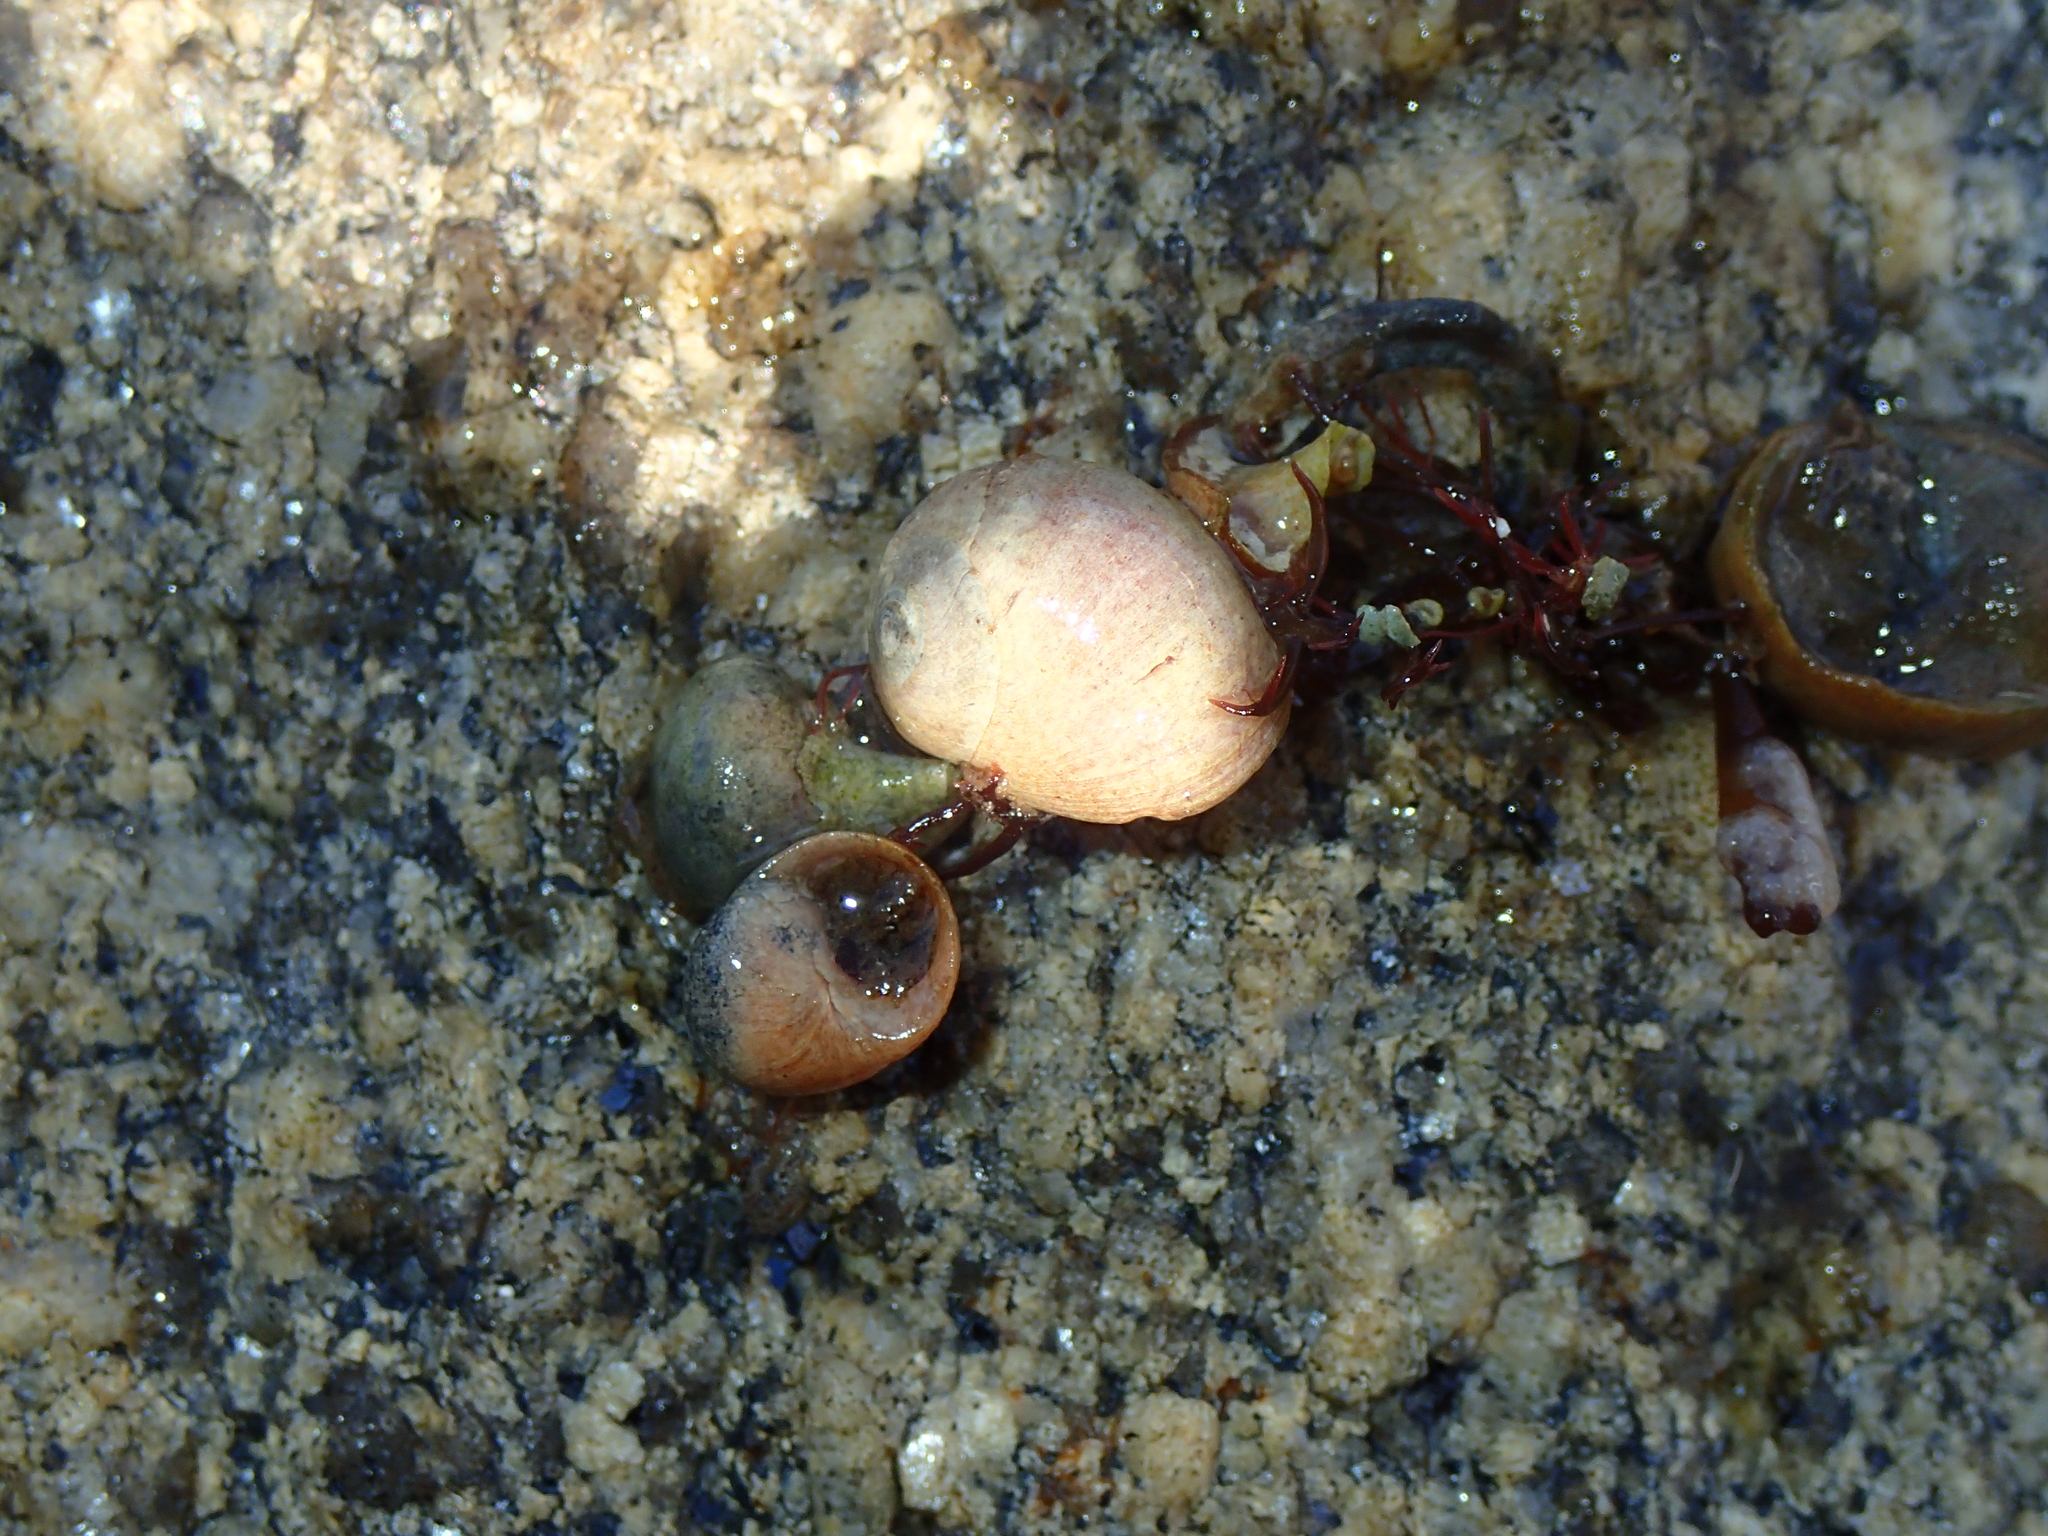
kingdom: Animalia
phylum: Mollusca
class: Gastropoda
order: Littorinimorpha
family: Littorinidae
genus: Littorina
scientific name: Littorina obtusata
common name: Flat periwinkle
